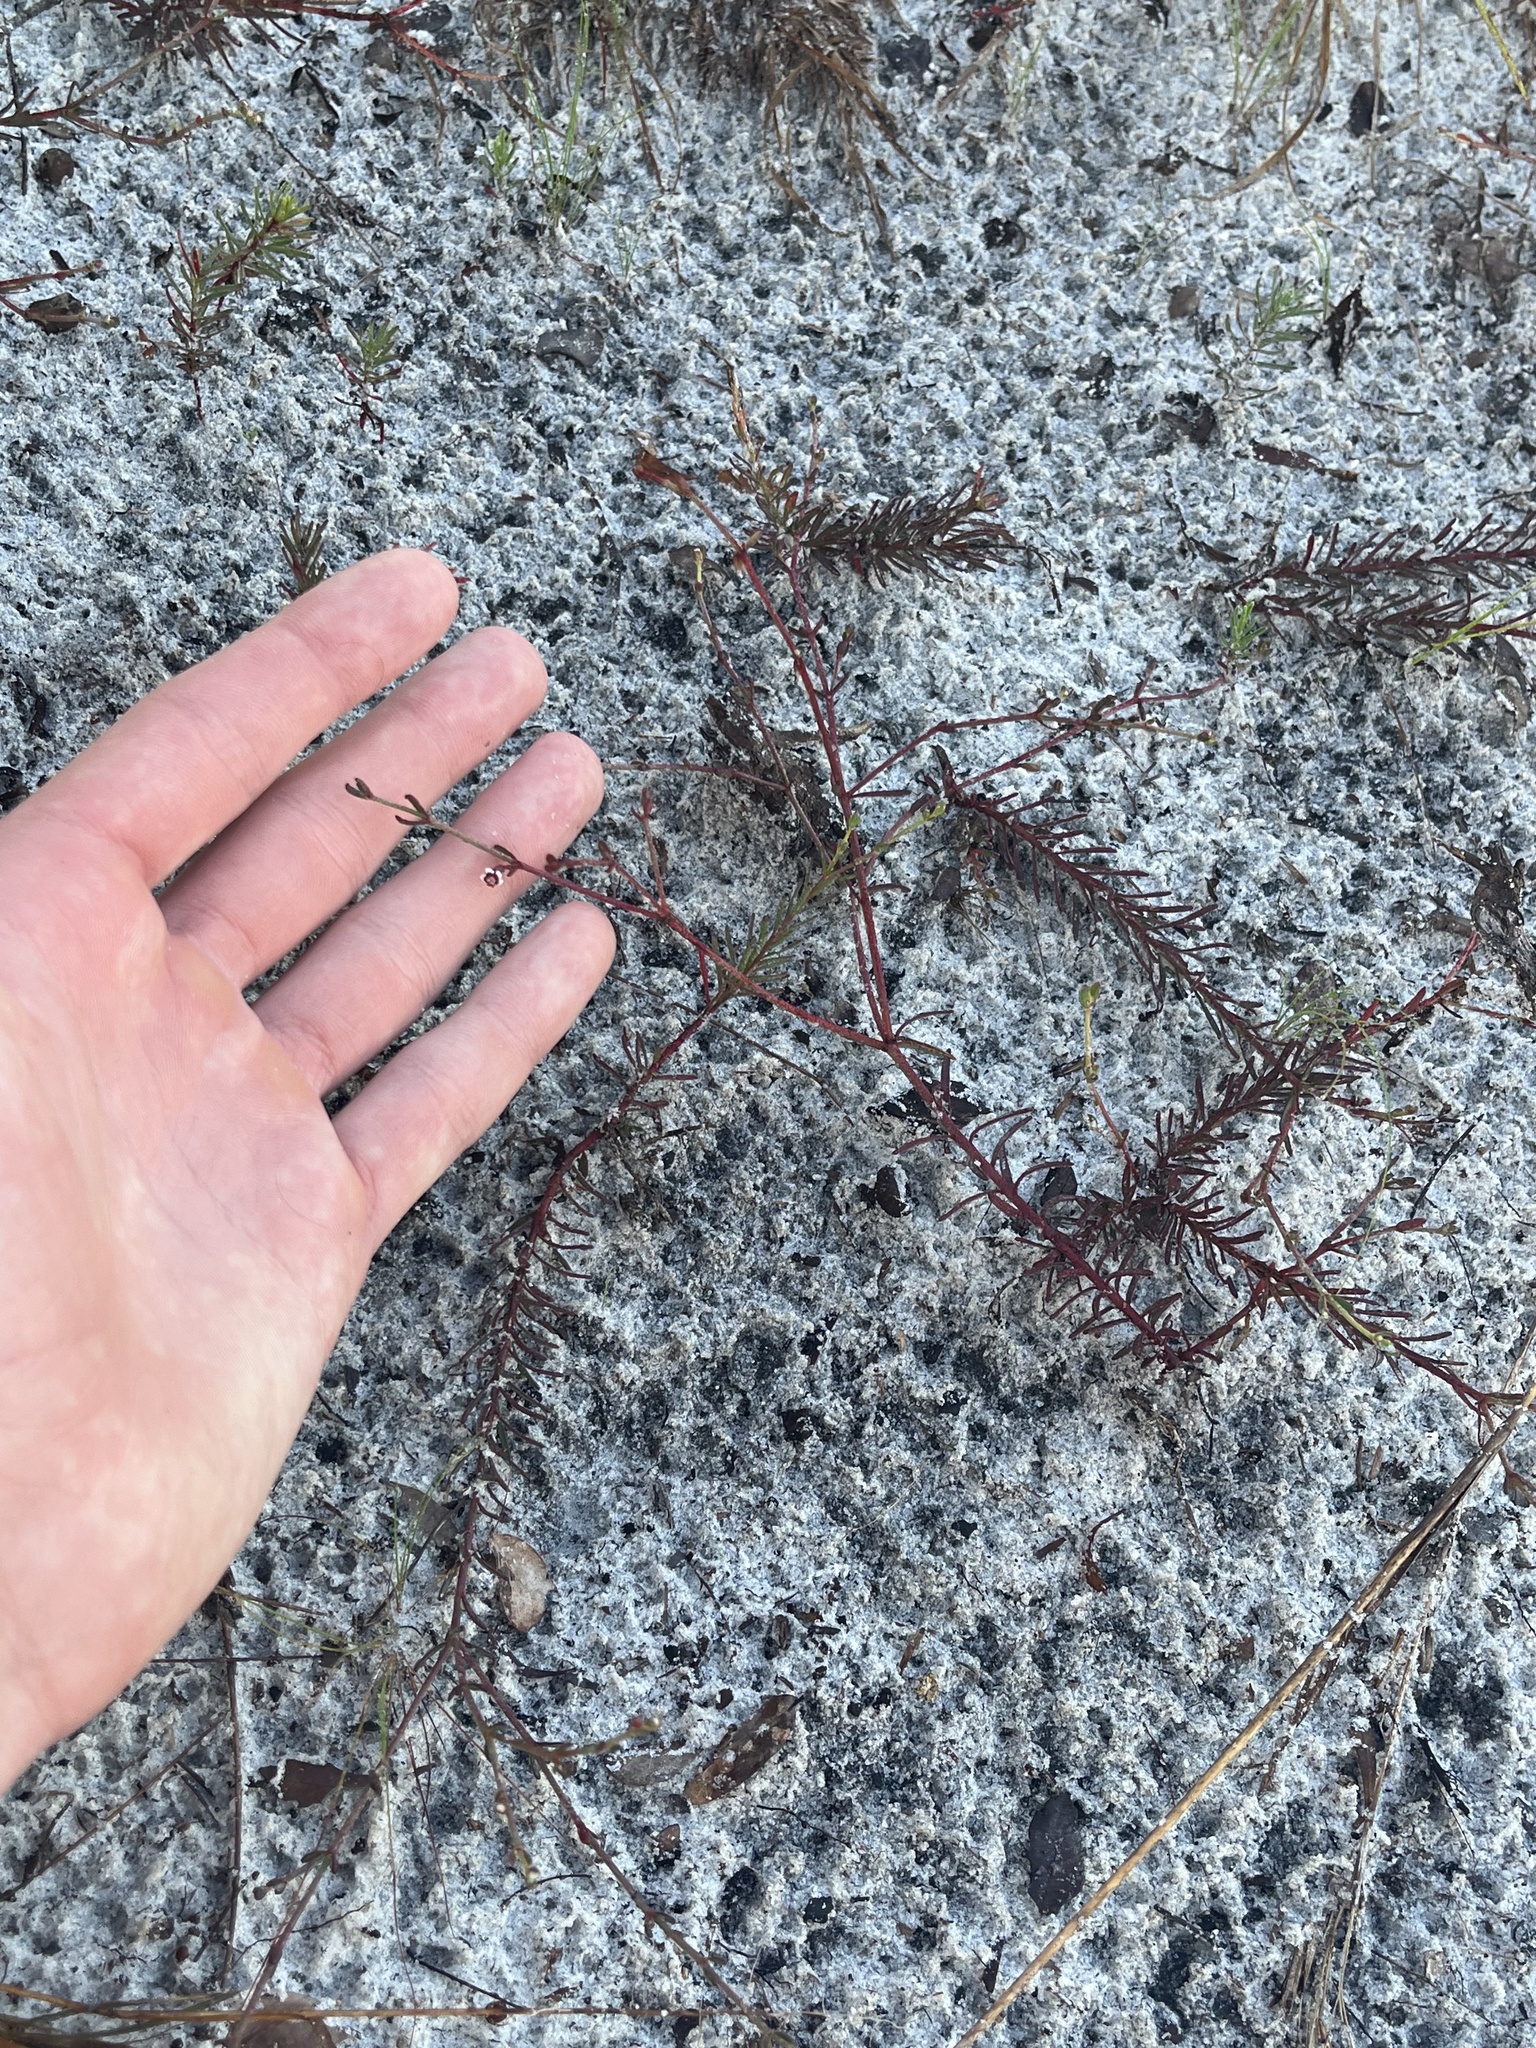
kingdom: Plantae
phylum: Tracheophyta
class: Magnoliopsida
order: Malpighiales
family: Euphorbiaceae
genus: Euphorbia
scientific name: Euphorbia polyphylla
